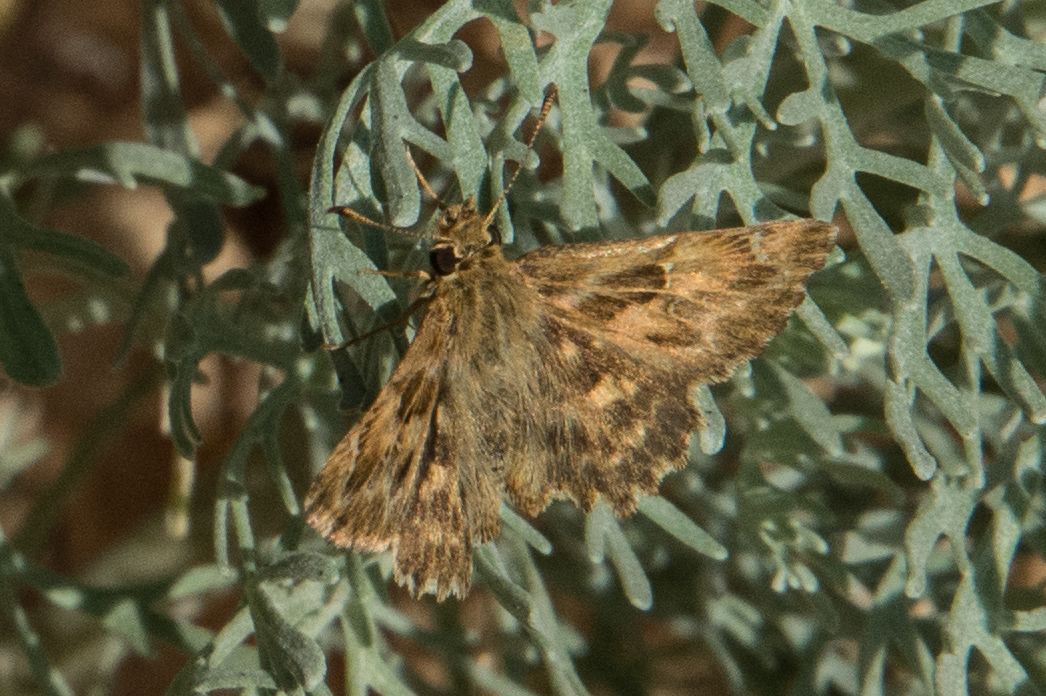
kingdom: Animalia
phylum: Arthropoda
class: Insecta
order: Lepidoptera
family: Hesperiidae
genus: Carcharodus
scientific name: Carcharodus alceae
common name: Mallow skipper
